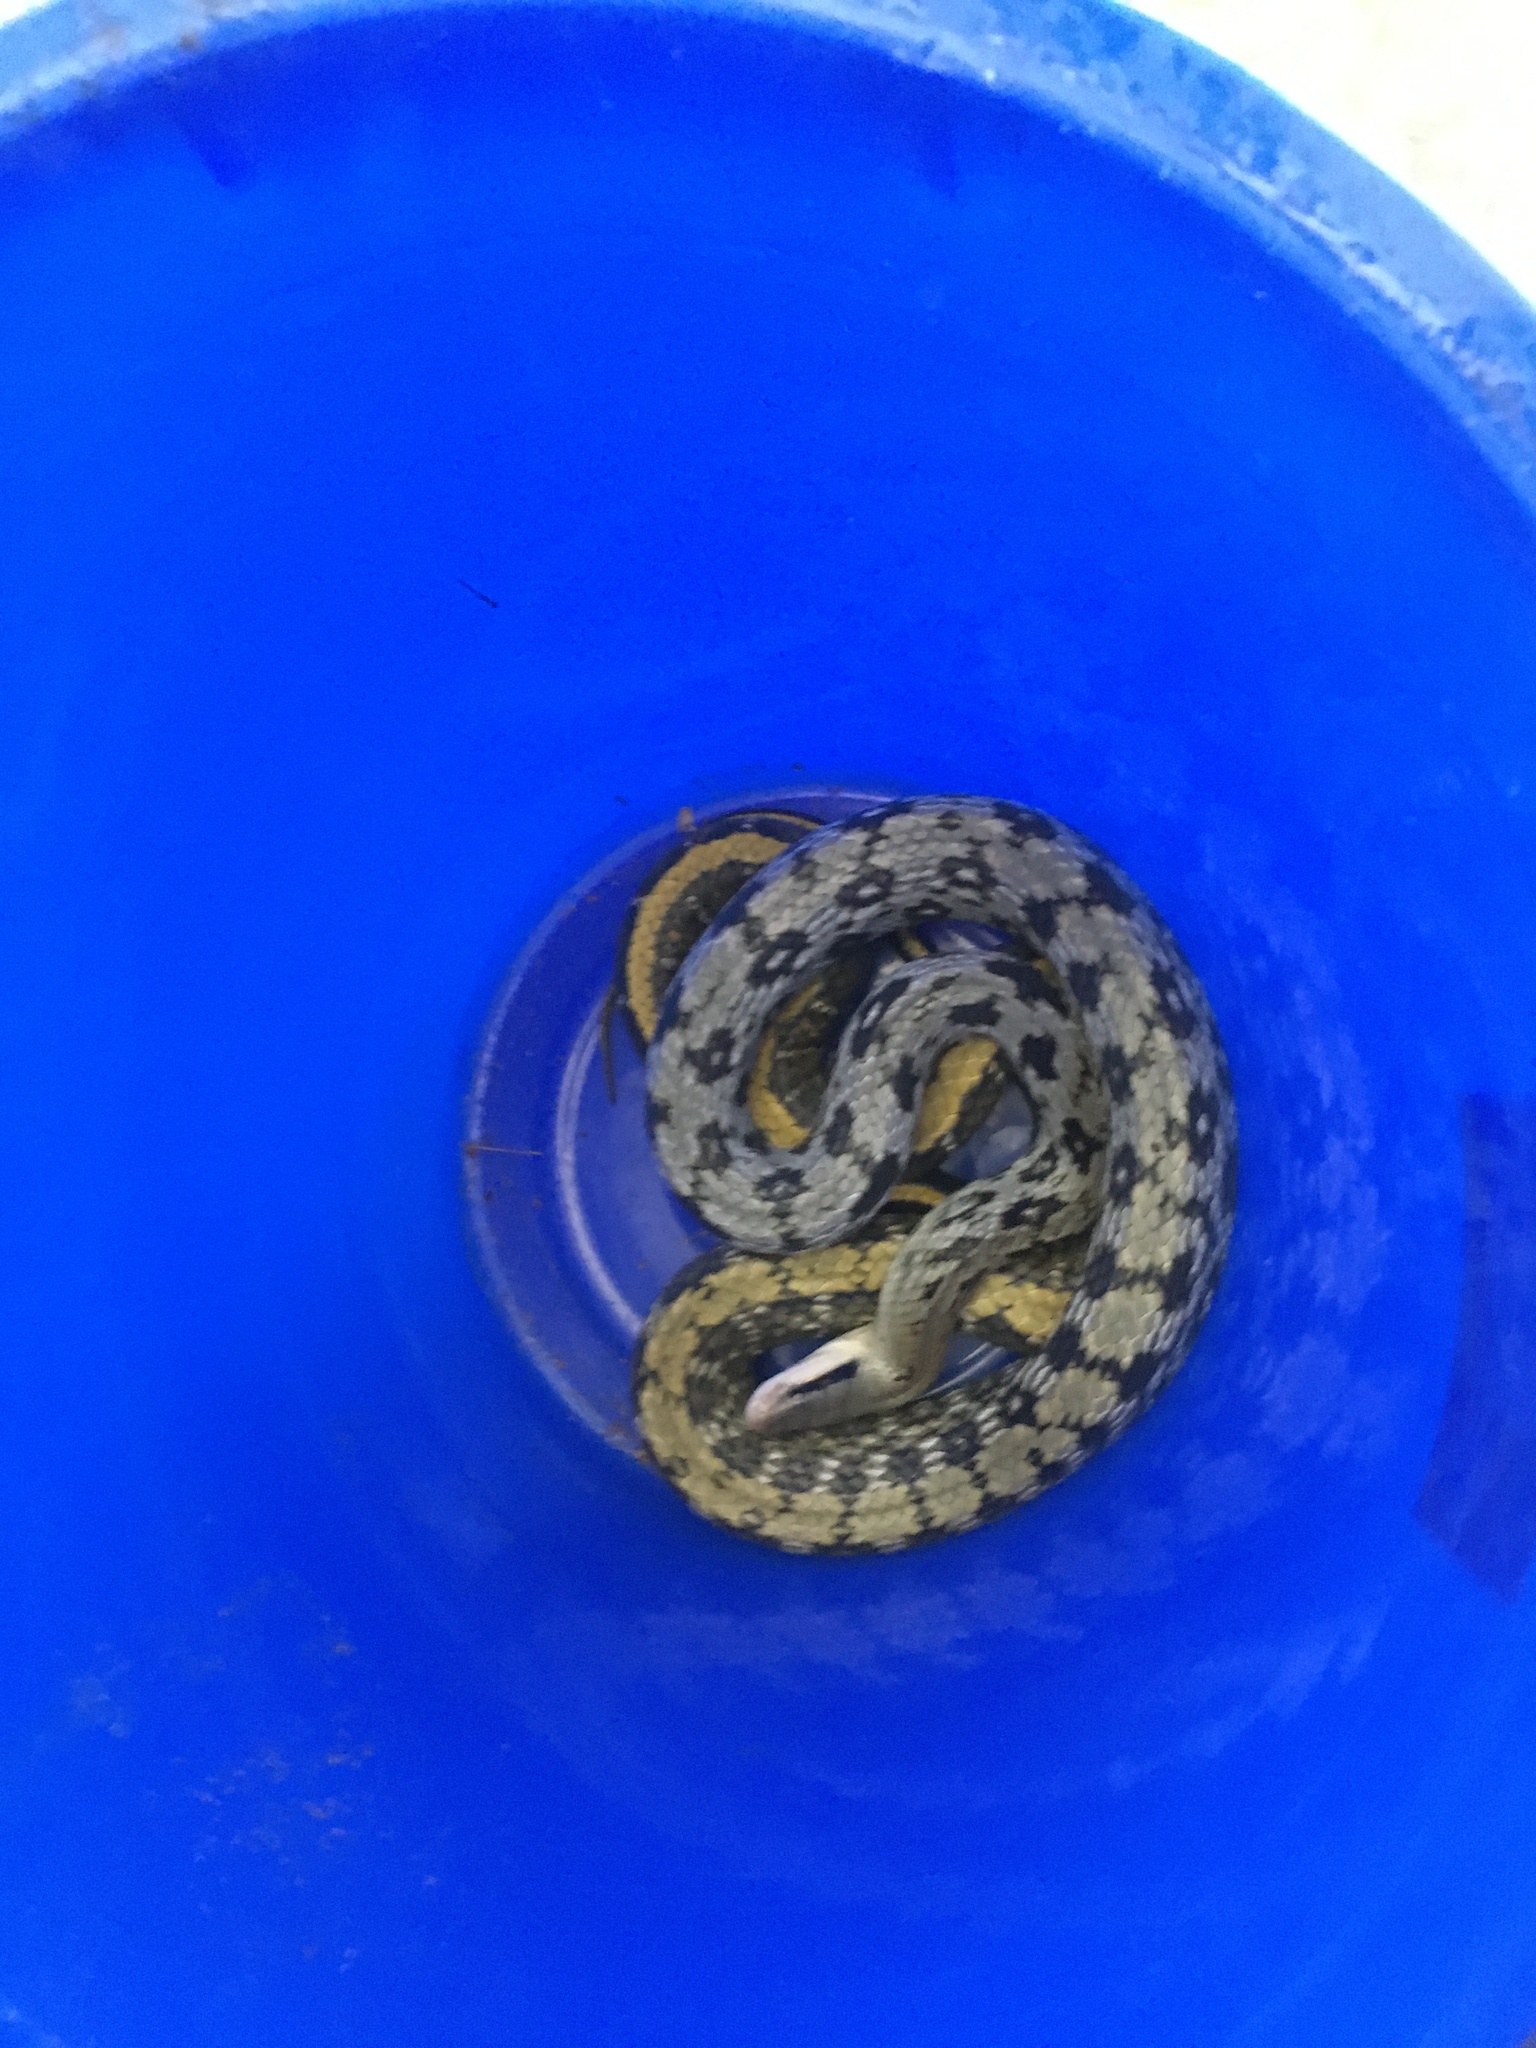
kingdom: Animalia
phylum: Chordata
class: Squamata
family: Colubridae
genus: Elaphe
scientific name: Elaphe taeniura
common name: Beauty snake
